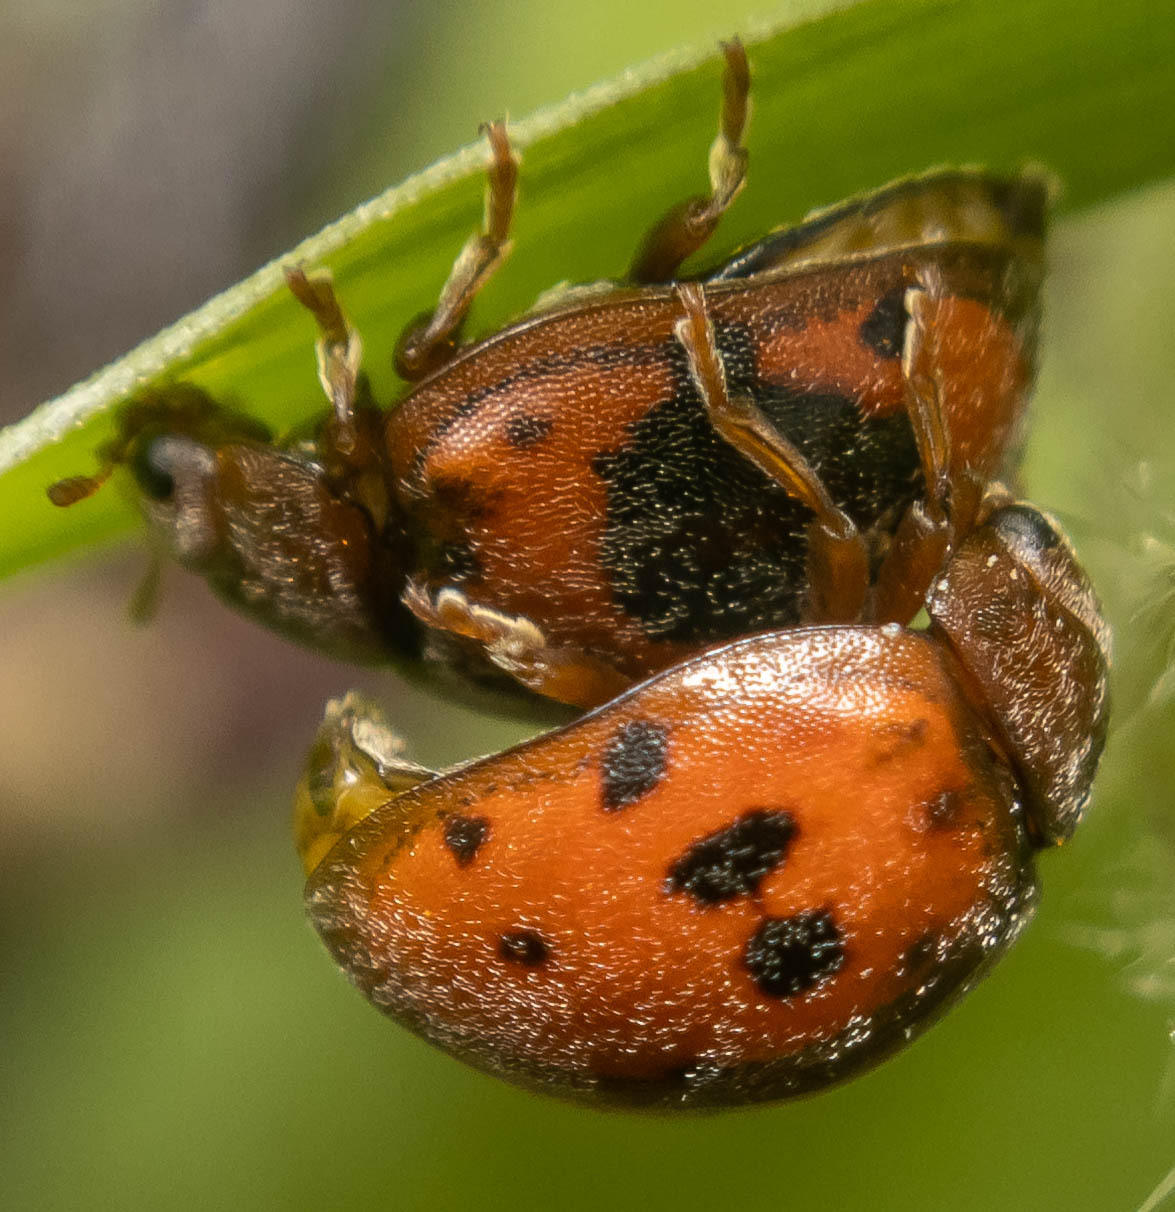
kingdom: Animalia
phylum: Arthropoda
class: Insecta
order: Coleoptera
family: Coccinellidae
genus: Subcoccinella
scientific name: Subcoccinella vigintiquatuorpunctata
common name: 24-spot ladybird
